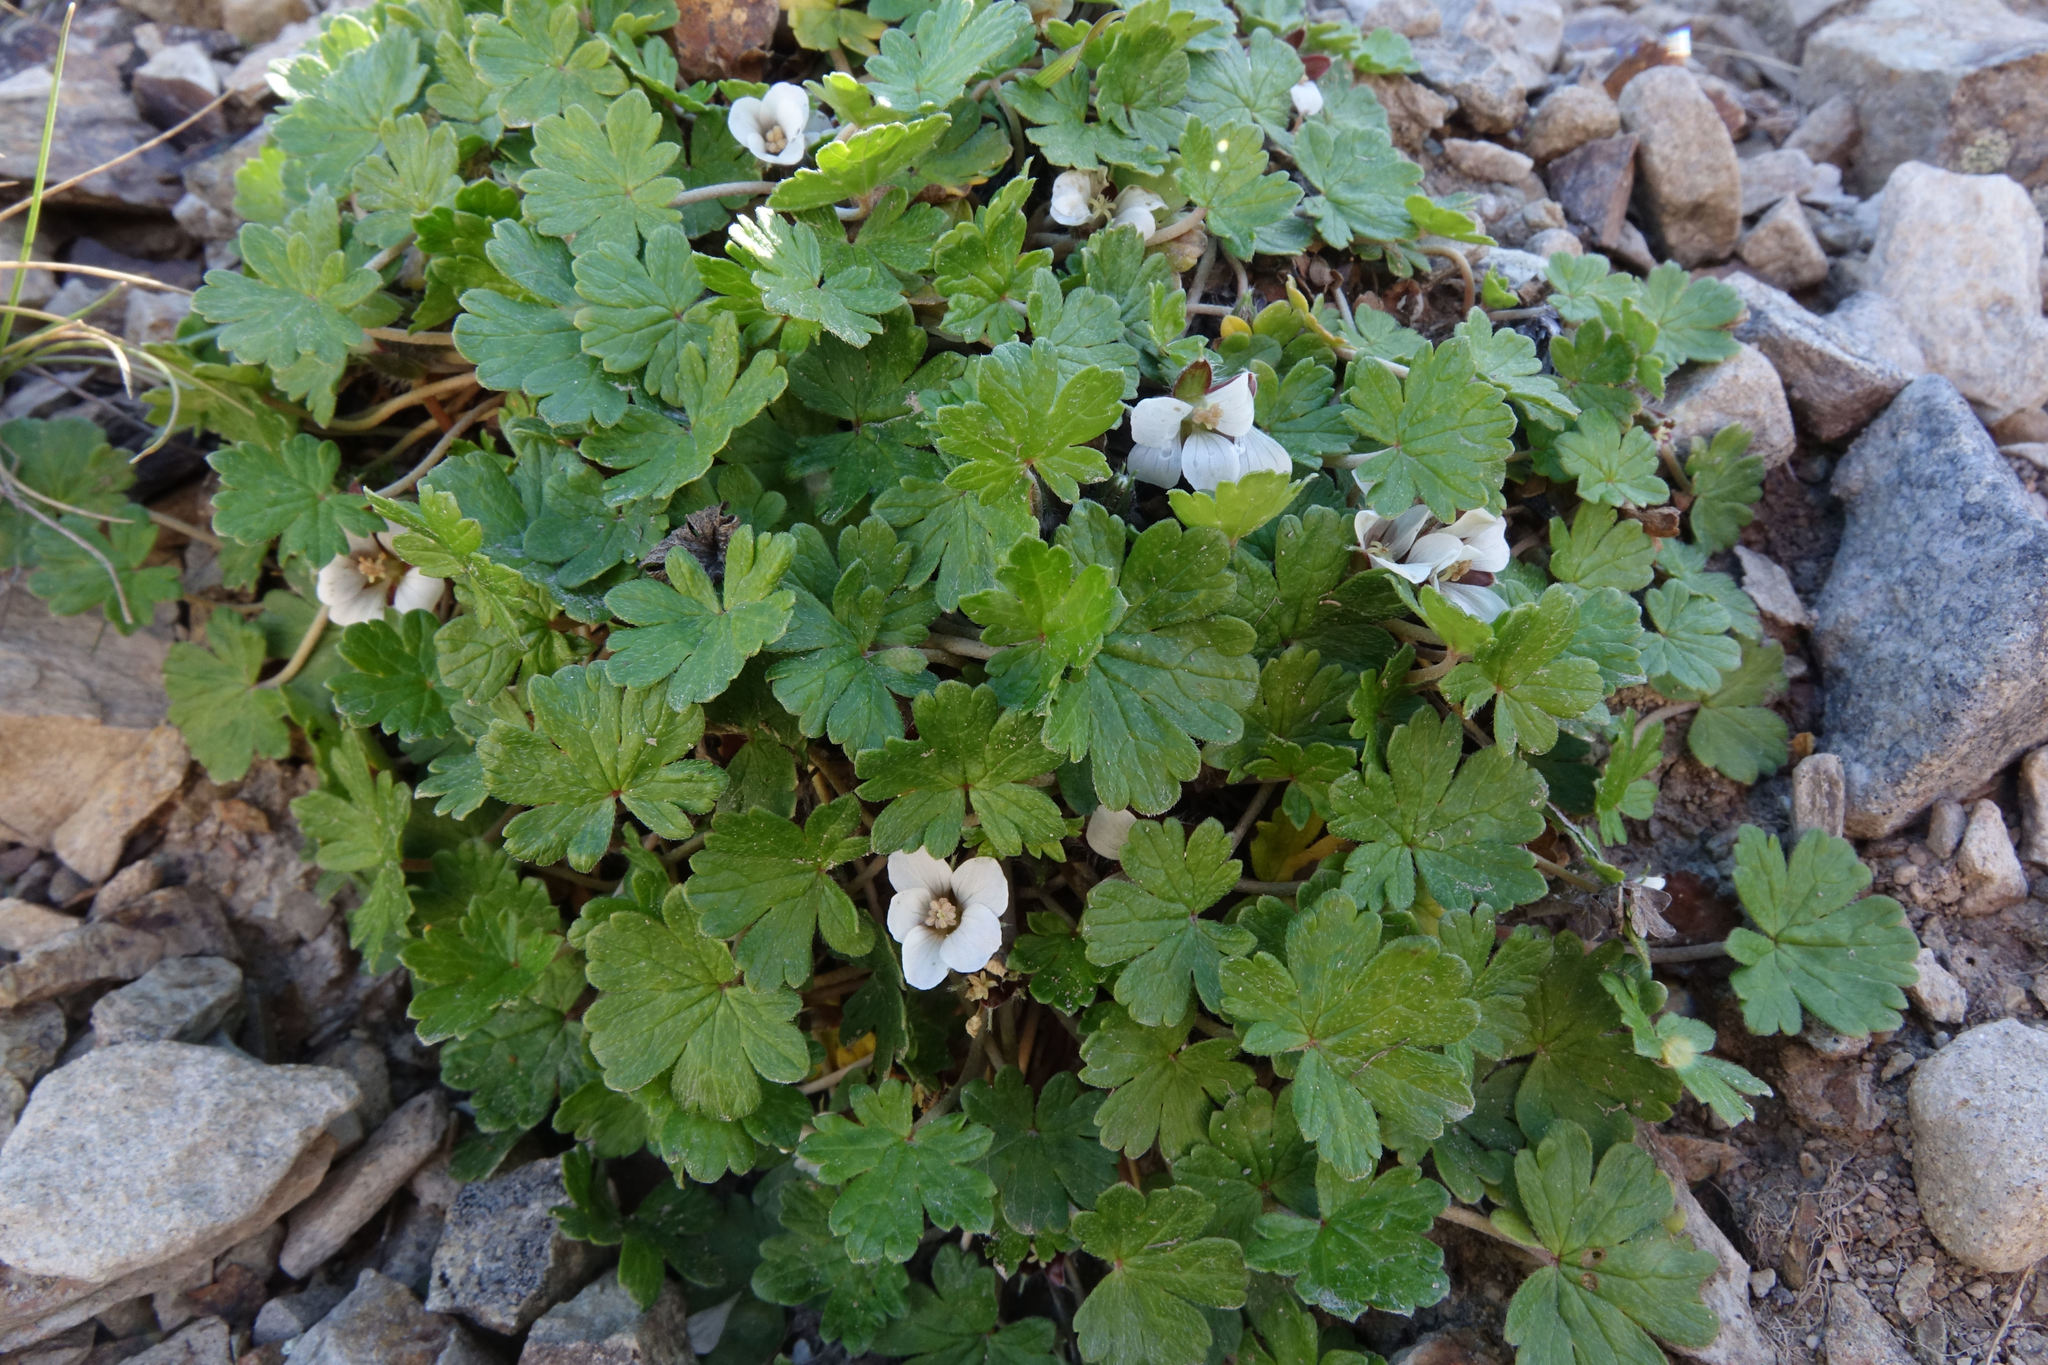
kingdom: Plantae
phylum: Tracheophyta
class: Magnoliopsida
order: Geraniales
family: Geraniaceae
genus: Geranium
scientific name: Geranium brevicaule
